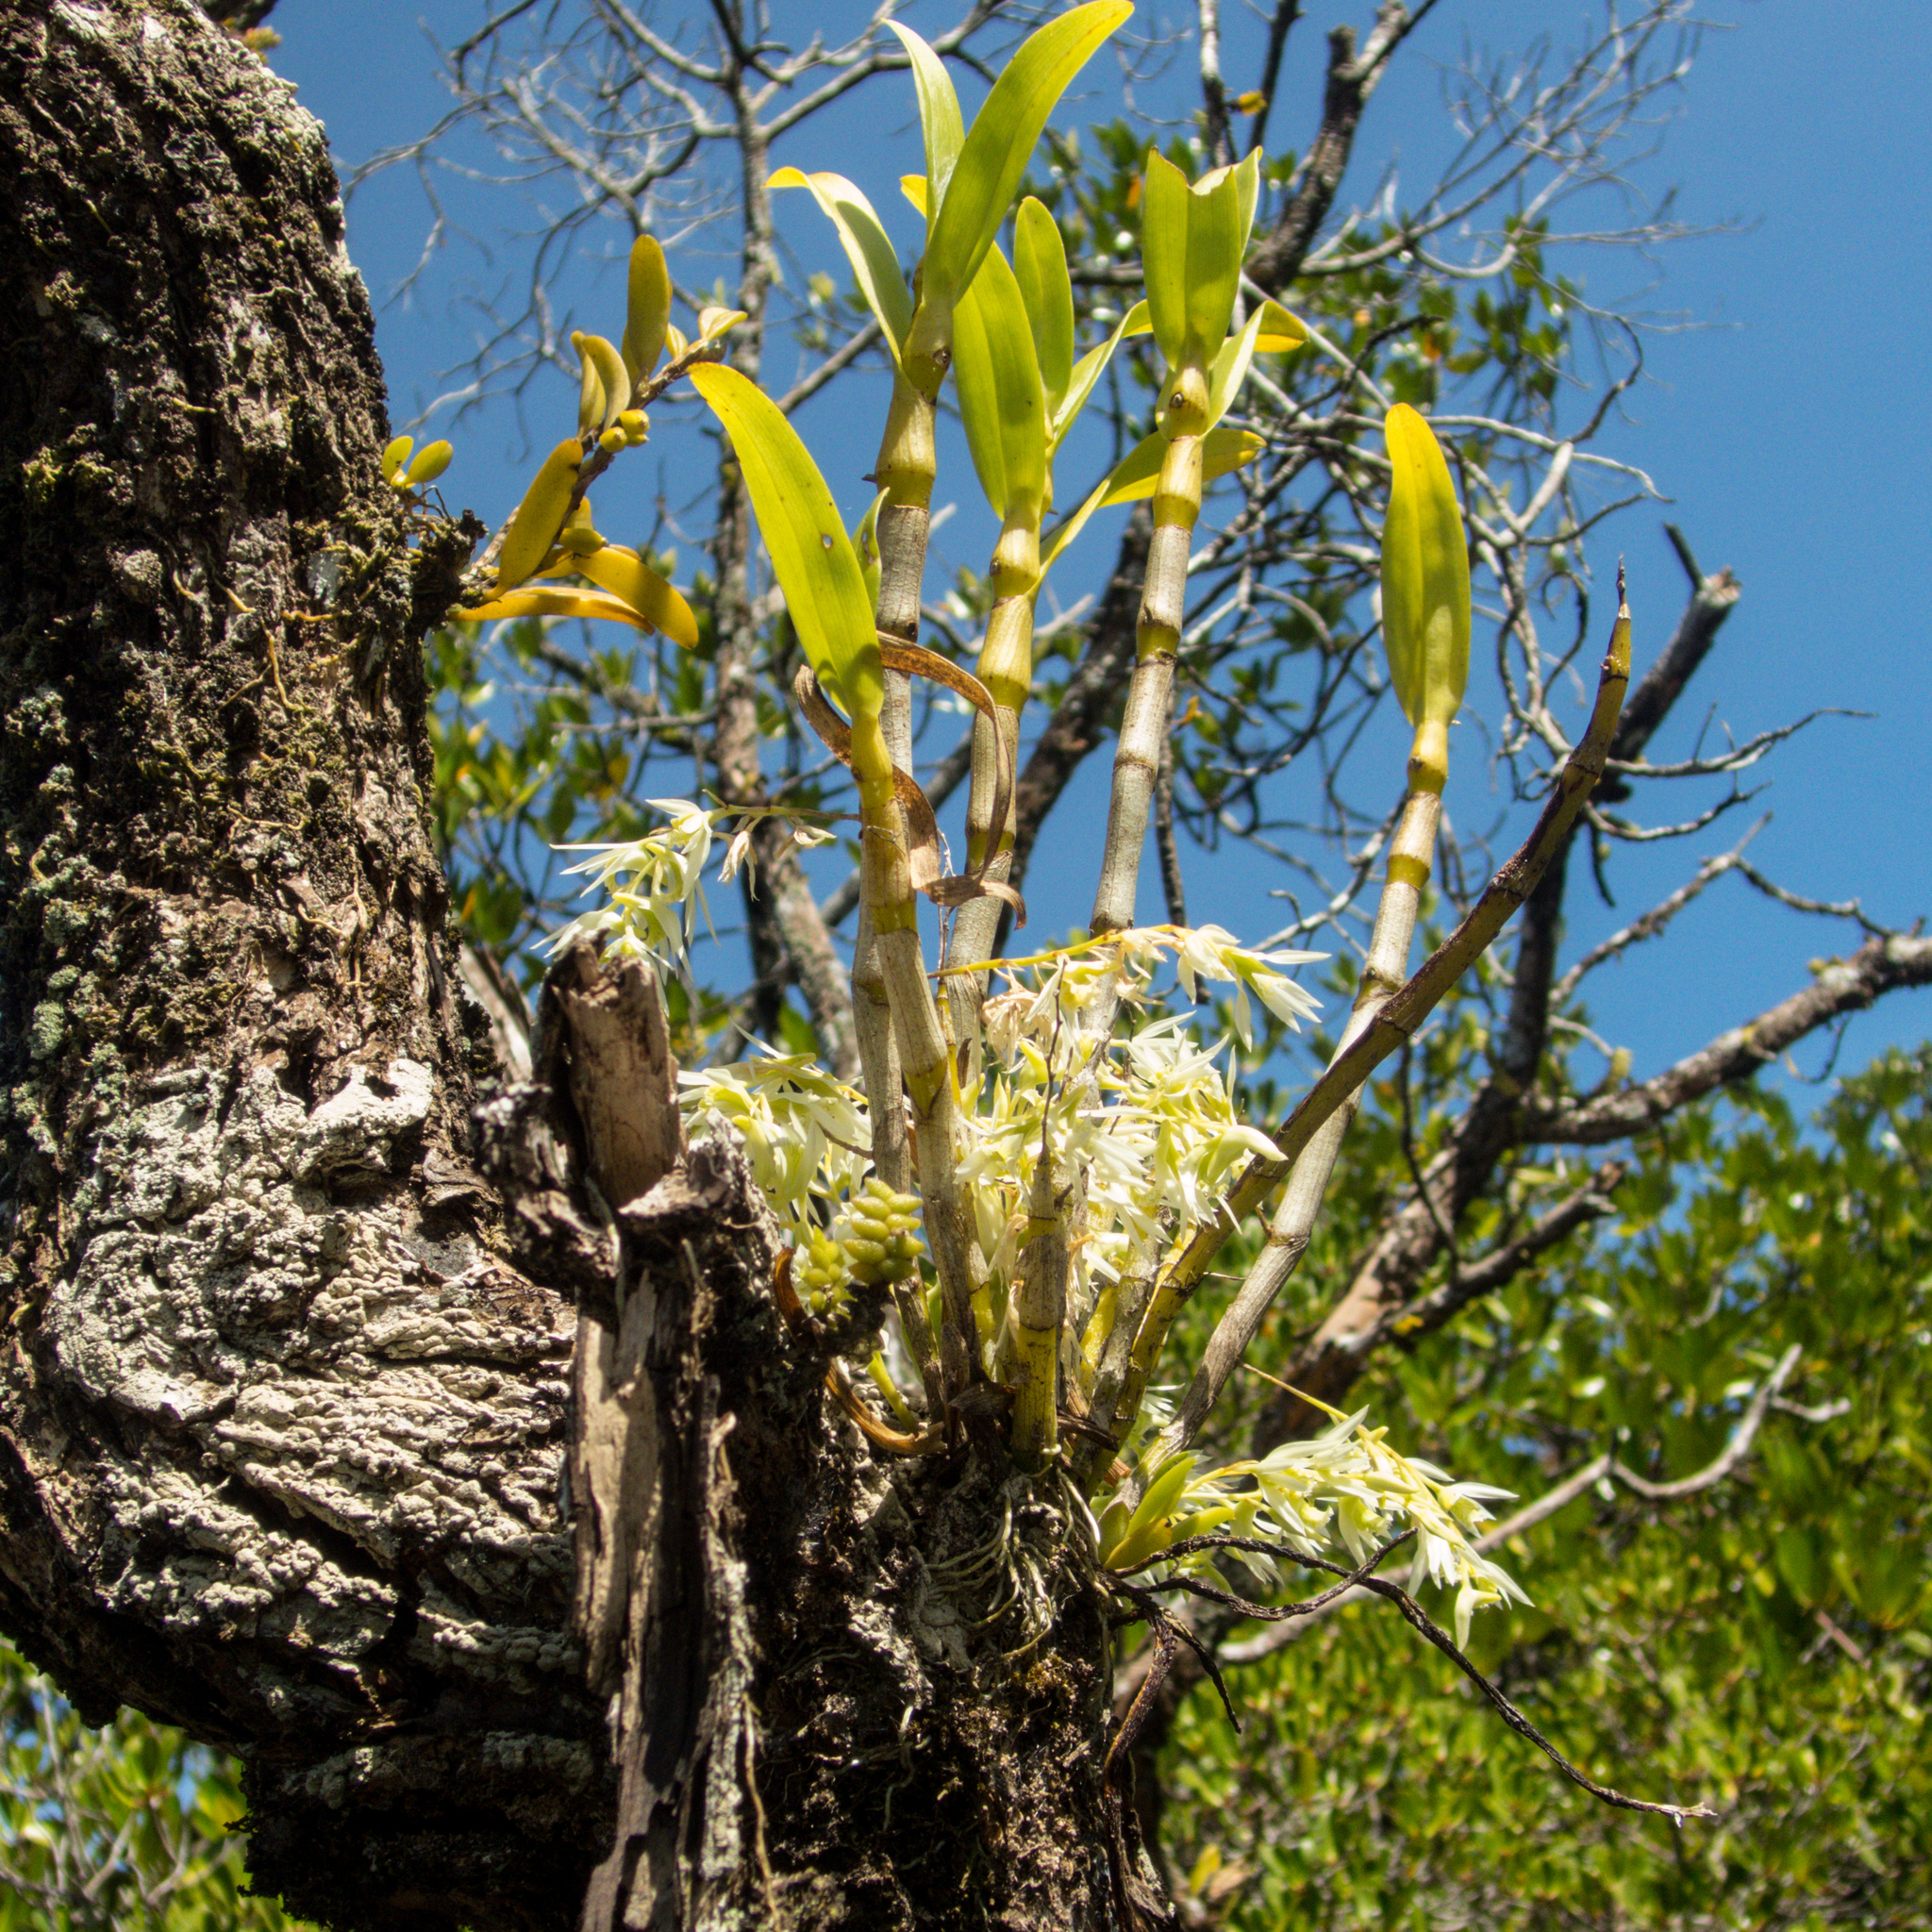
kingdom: Plantae
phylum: Tracheophyta
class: Liliopsida
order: Asparagales
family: Orchidaceae
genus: Dendrobium
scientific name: Dendrobium kratense
